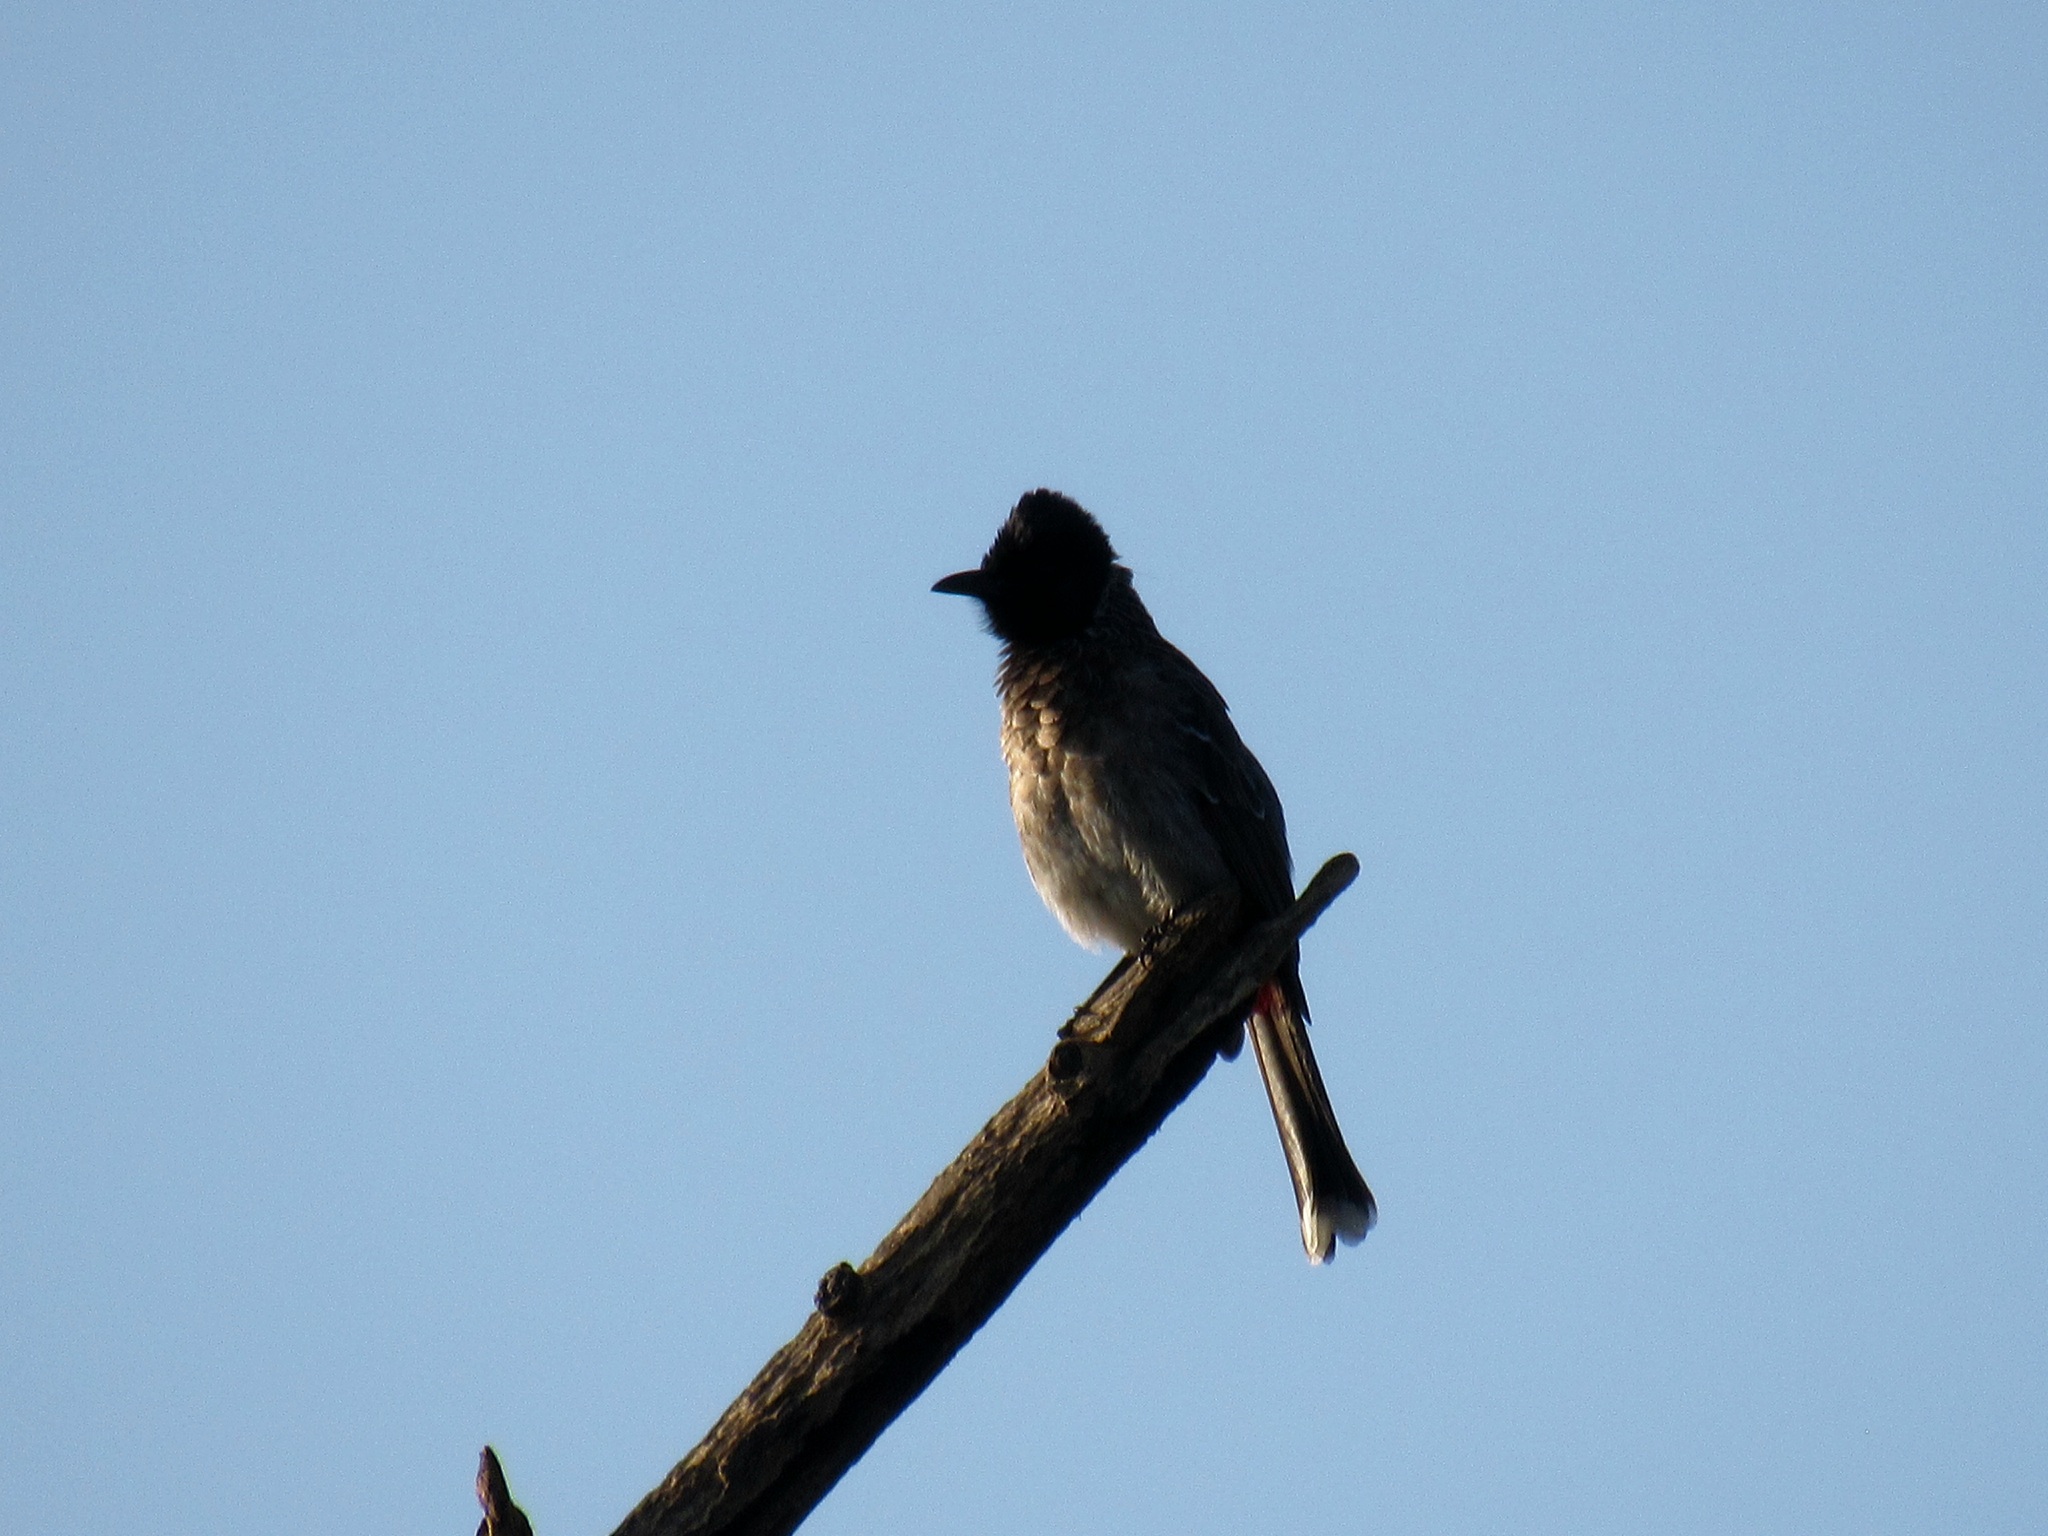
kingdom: Animalia
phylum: Chordata
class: Aves
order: Passeriformes
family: Pycnonotidae
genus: Pycnonotus
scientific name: Pycnonotus cafer
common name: Red-vented bulbul
